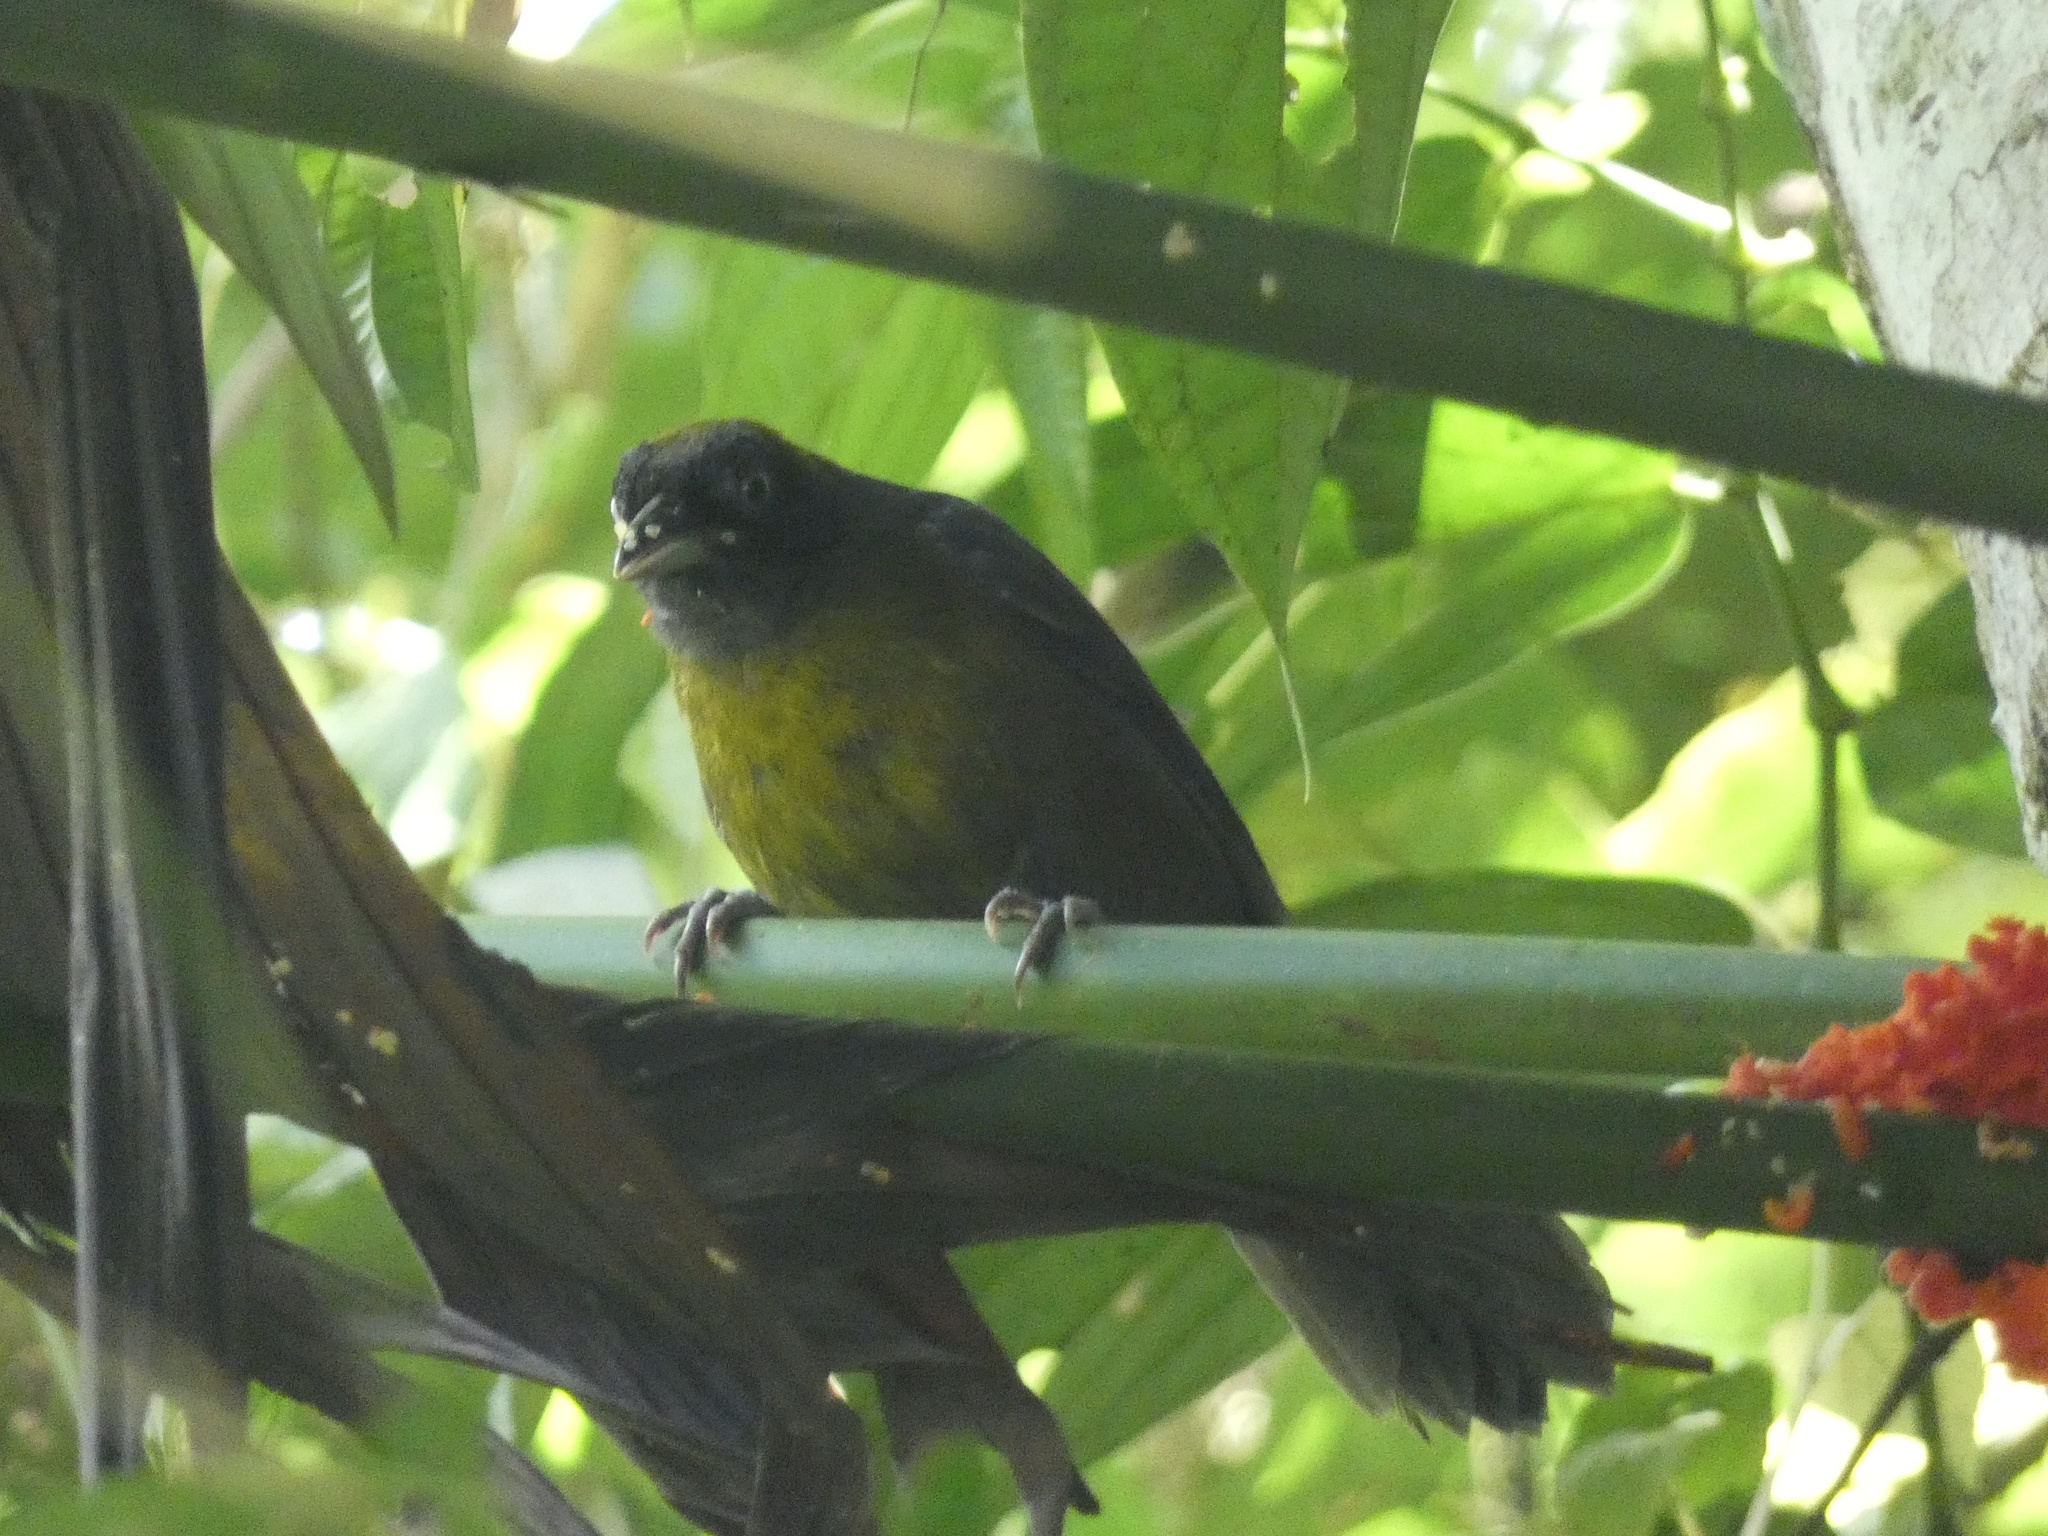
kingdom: Animalia
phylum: Chordata
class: Aves
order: Passeriformes
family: Mitrospingidae
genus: Mitrospingus
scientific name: Mitrospingus cassinii
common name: Dusky-faced tanager
